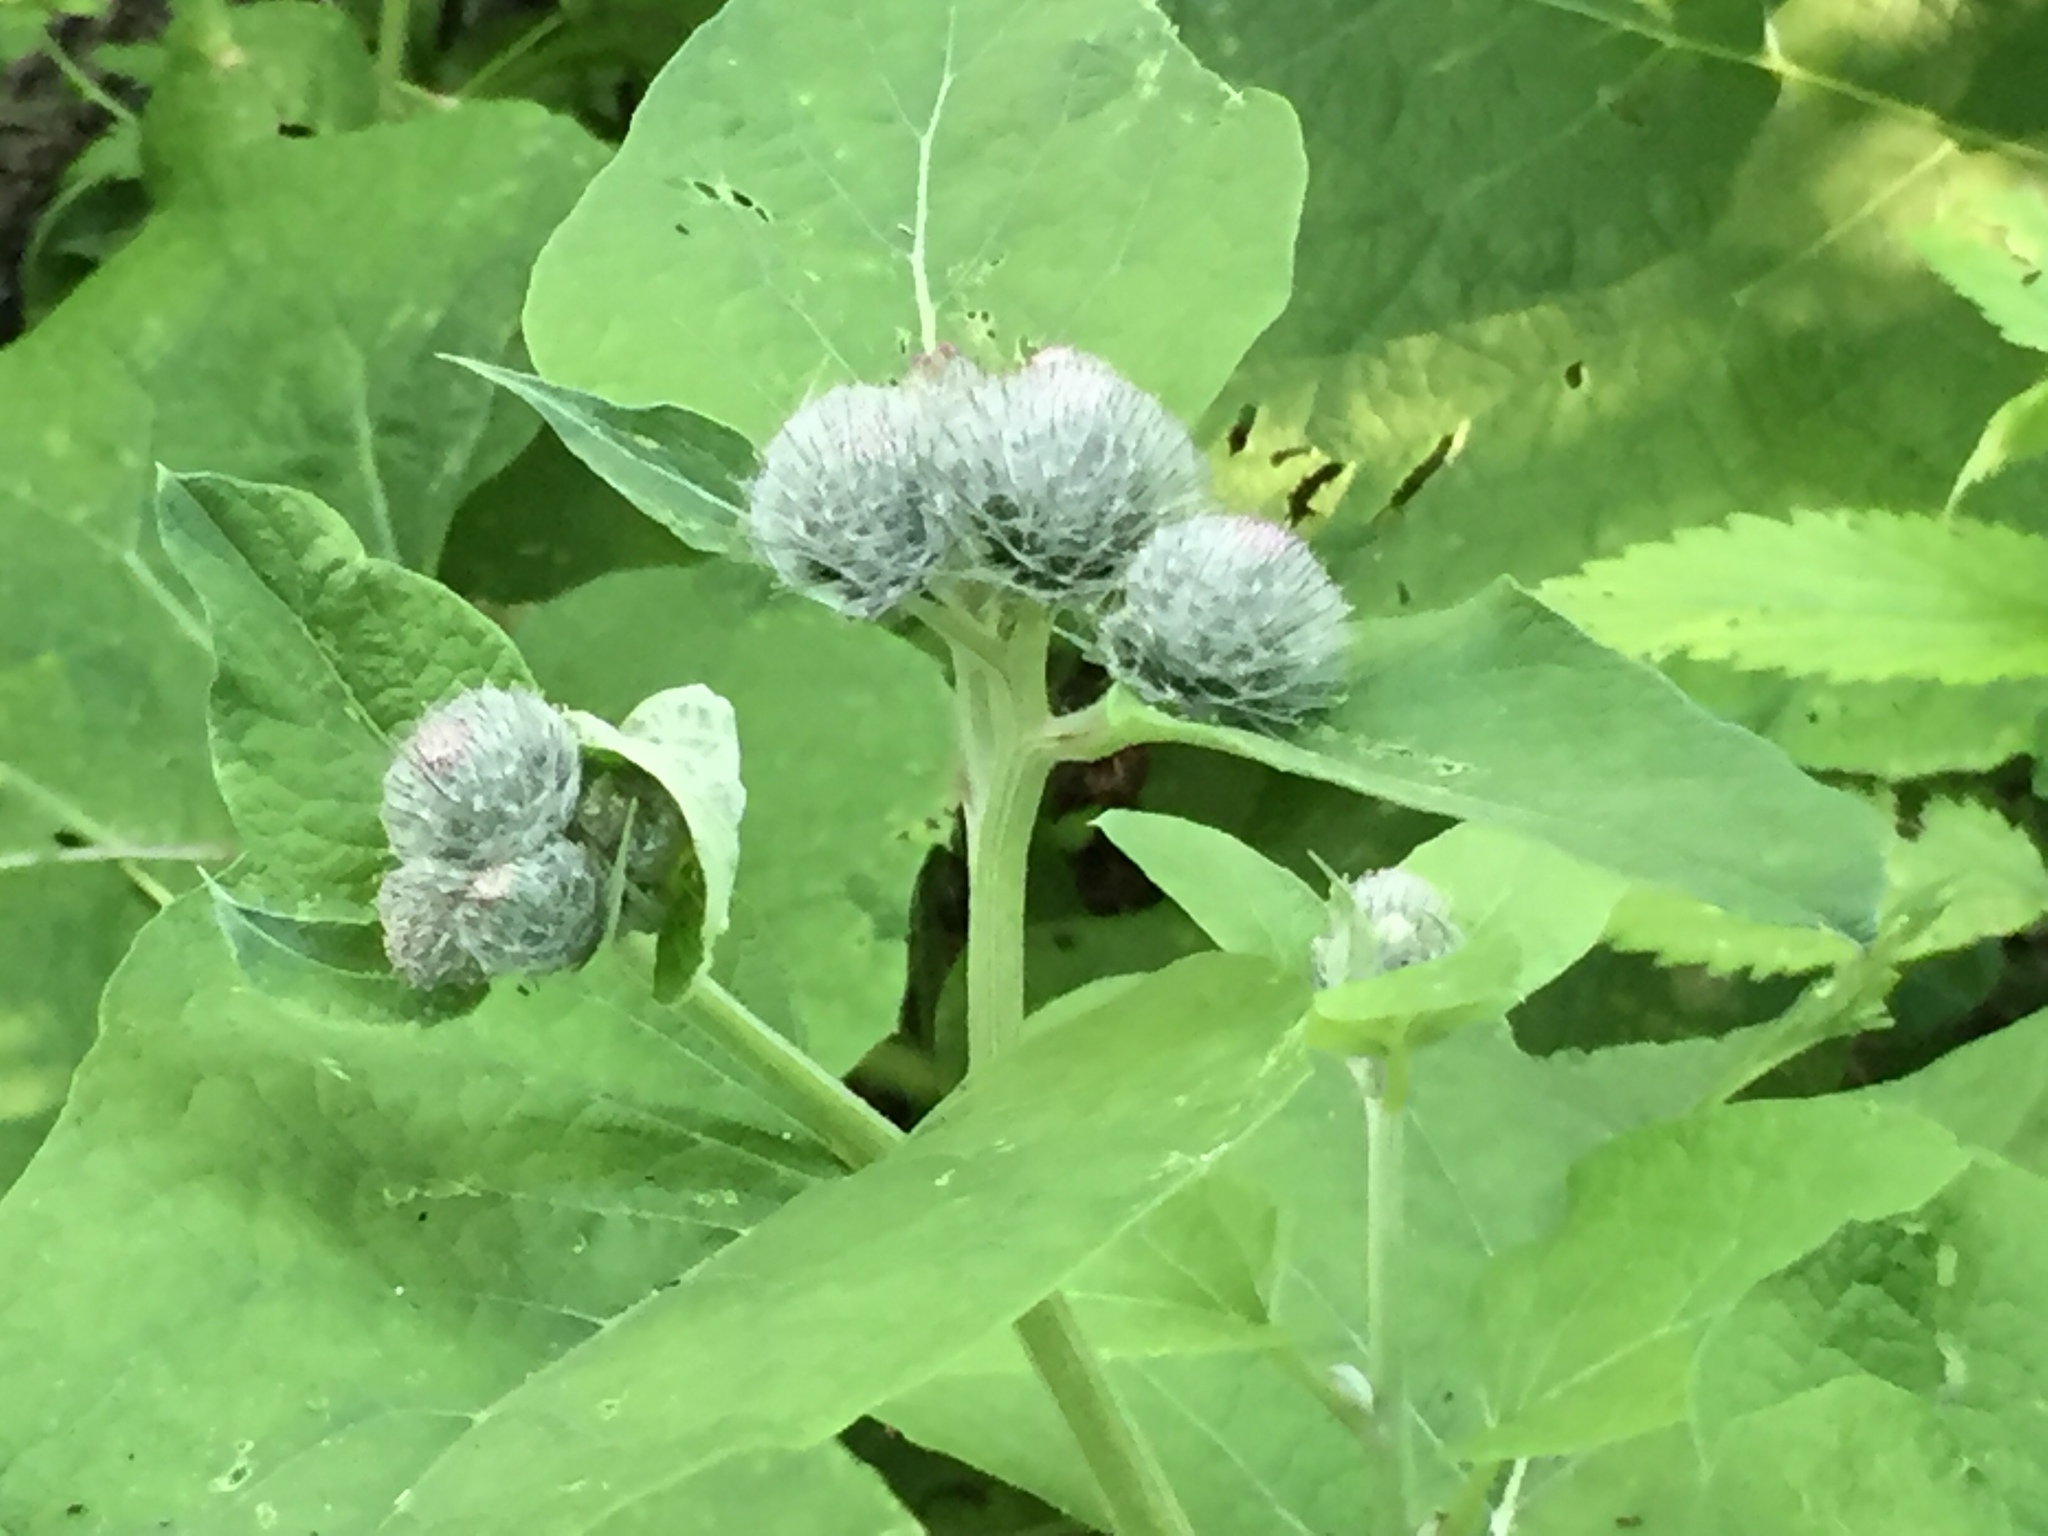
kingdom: Plantae
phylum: Tracheophyta
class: Magnoliopsida
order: Asterales
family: Asteraceae
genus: Arctium
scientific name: Arctium tomentosum
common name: Woolly burdock
